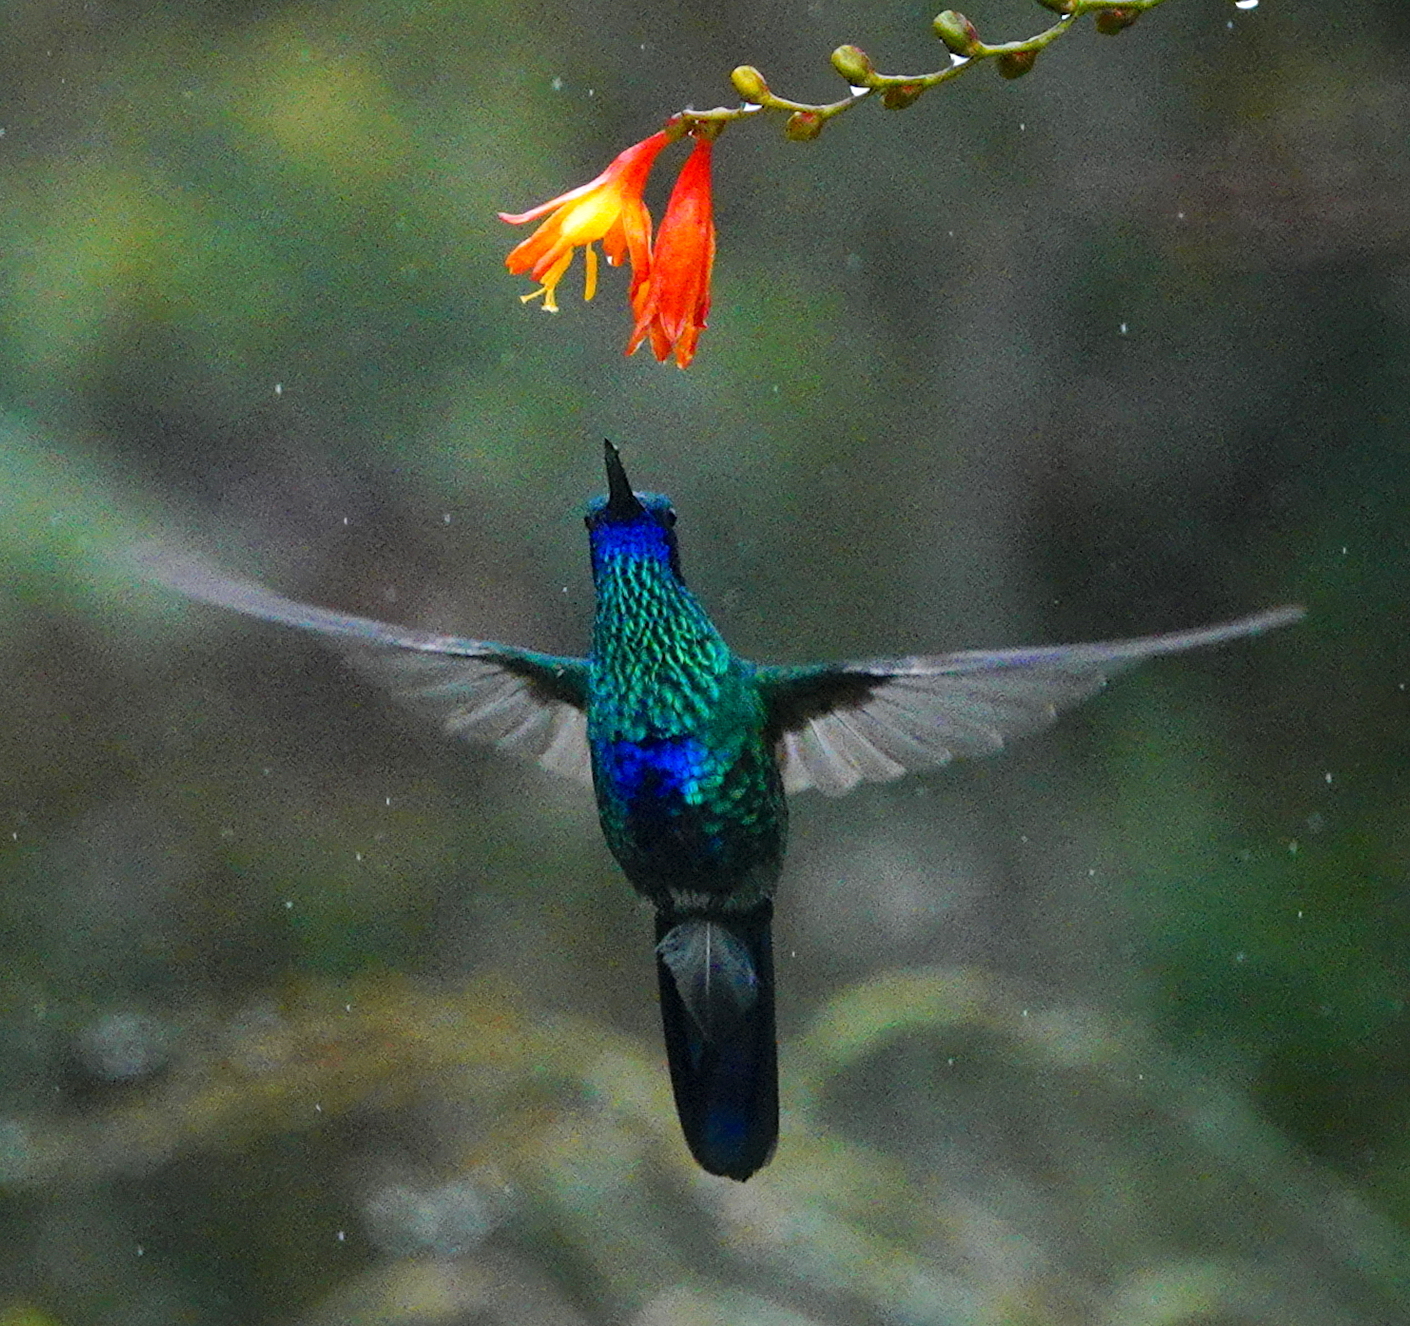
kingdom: Animalia
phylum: Chordata
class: Aves
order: Apodiformes
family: Trochilidae
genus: Colibri
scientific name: Colibri coruscans
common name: Sparkling violetear
